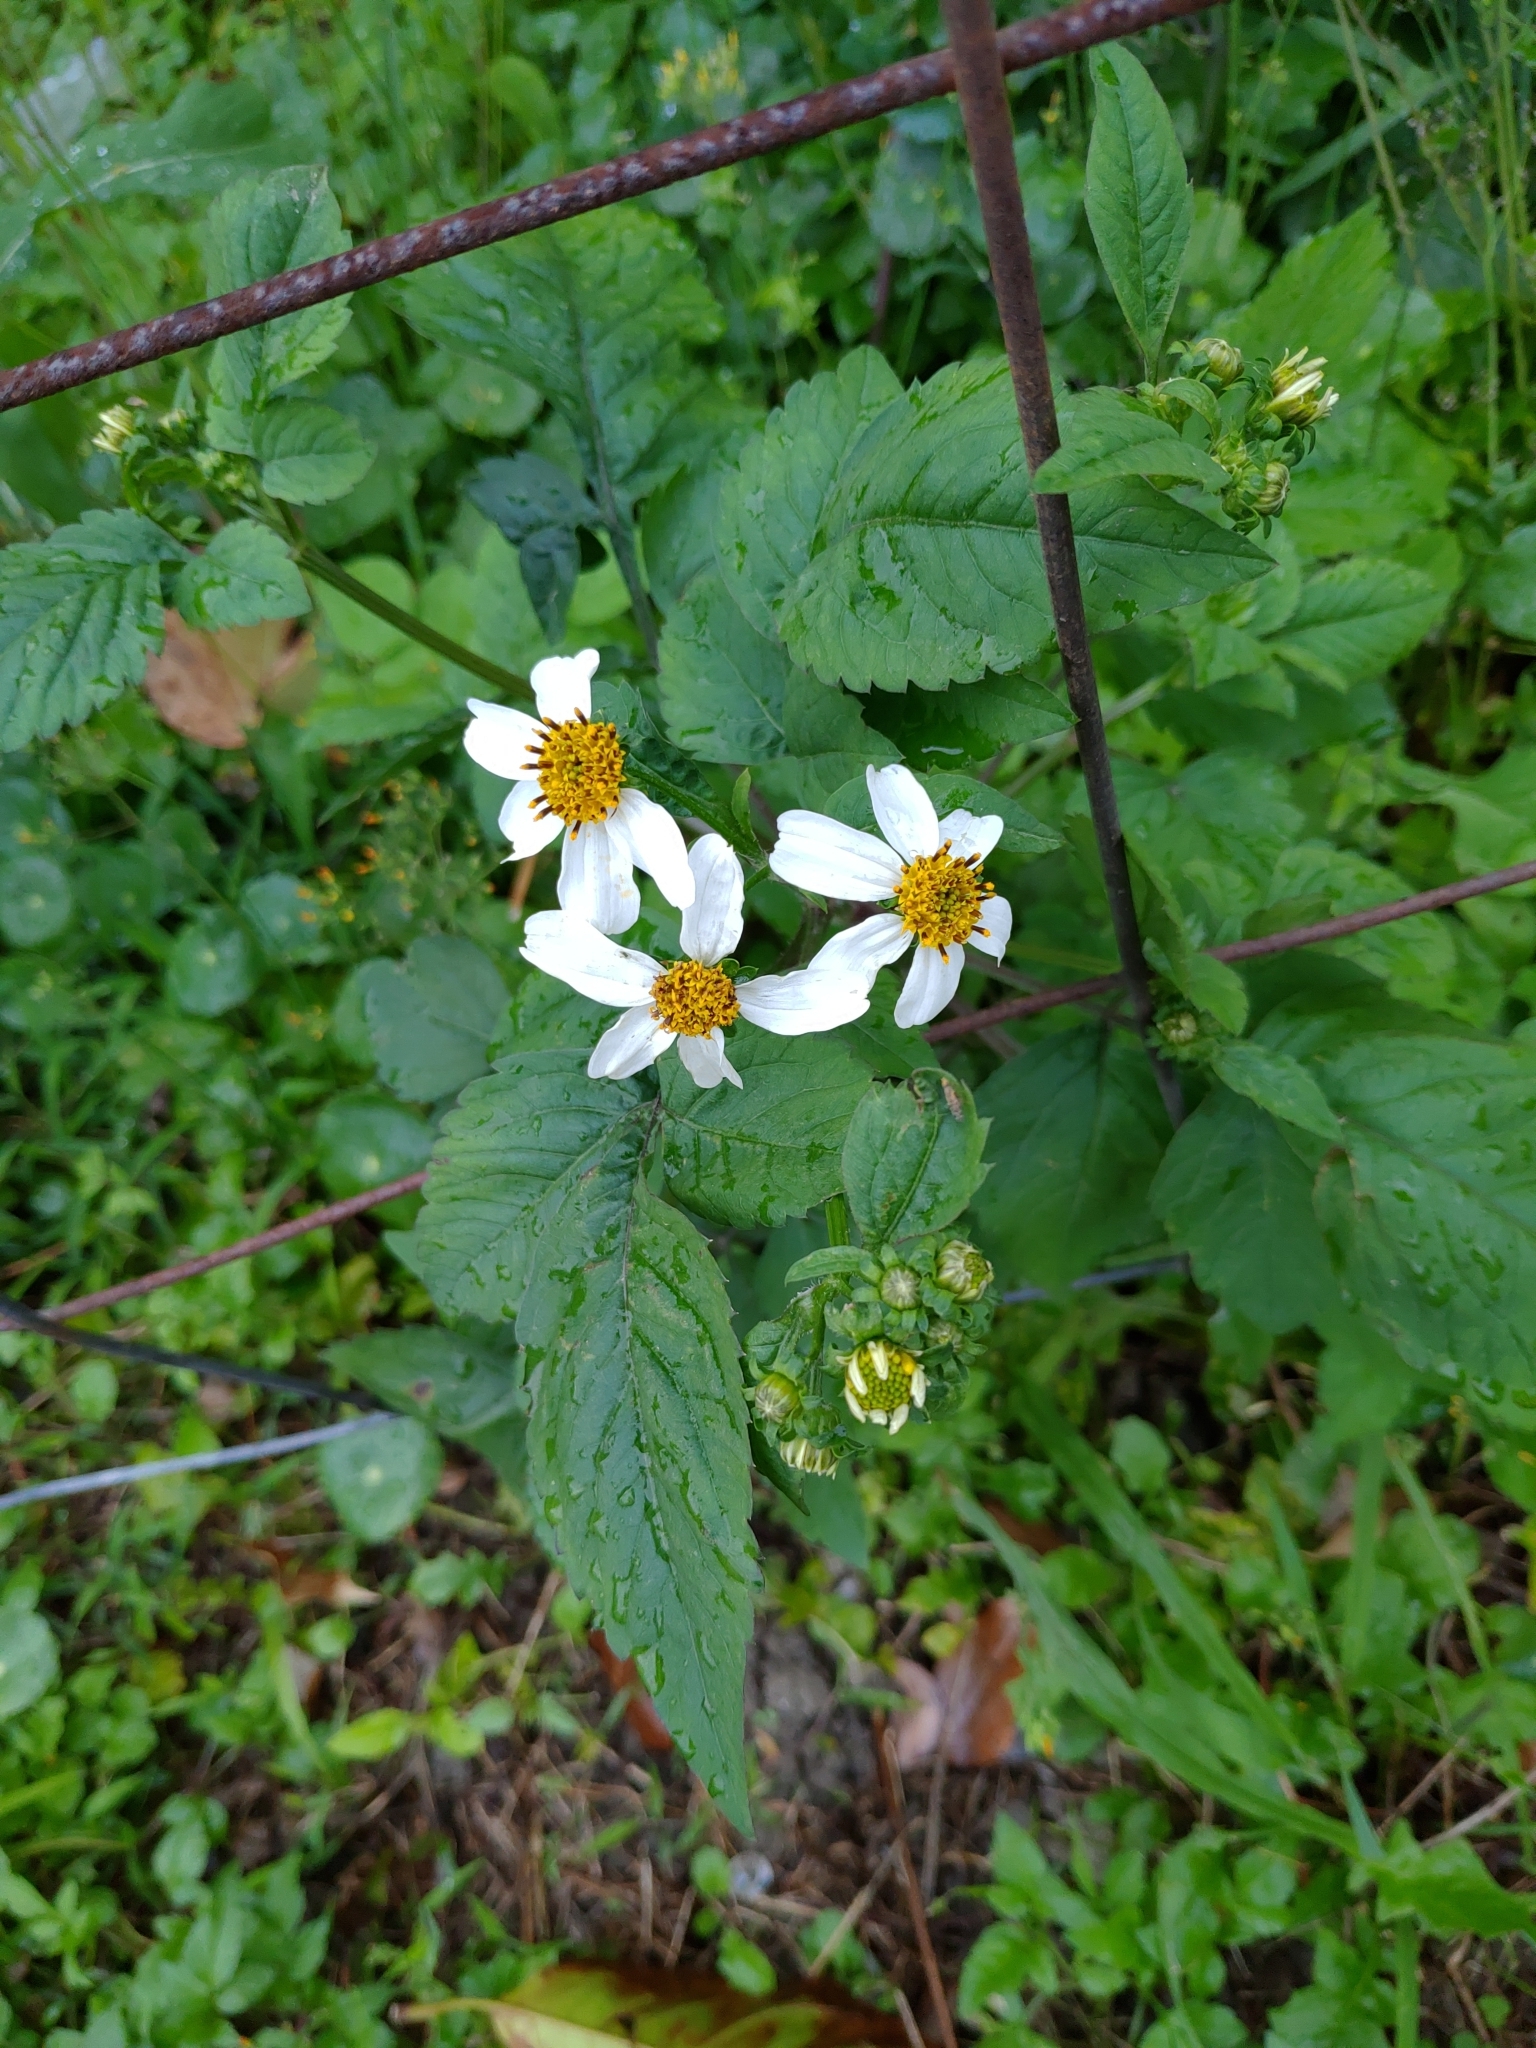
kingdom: Plantae
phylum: Tracheophyta
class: Magnoliopsida
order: Asterales
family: Asteraceae
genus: Bidens
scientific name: Bidens alba
